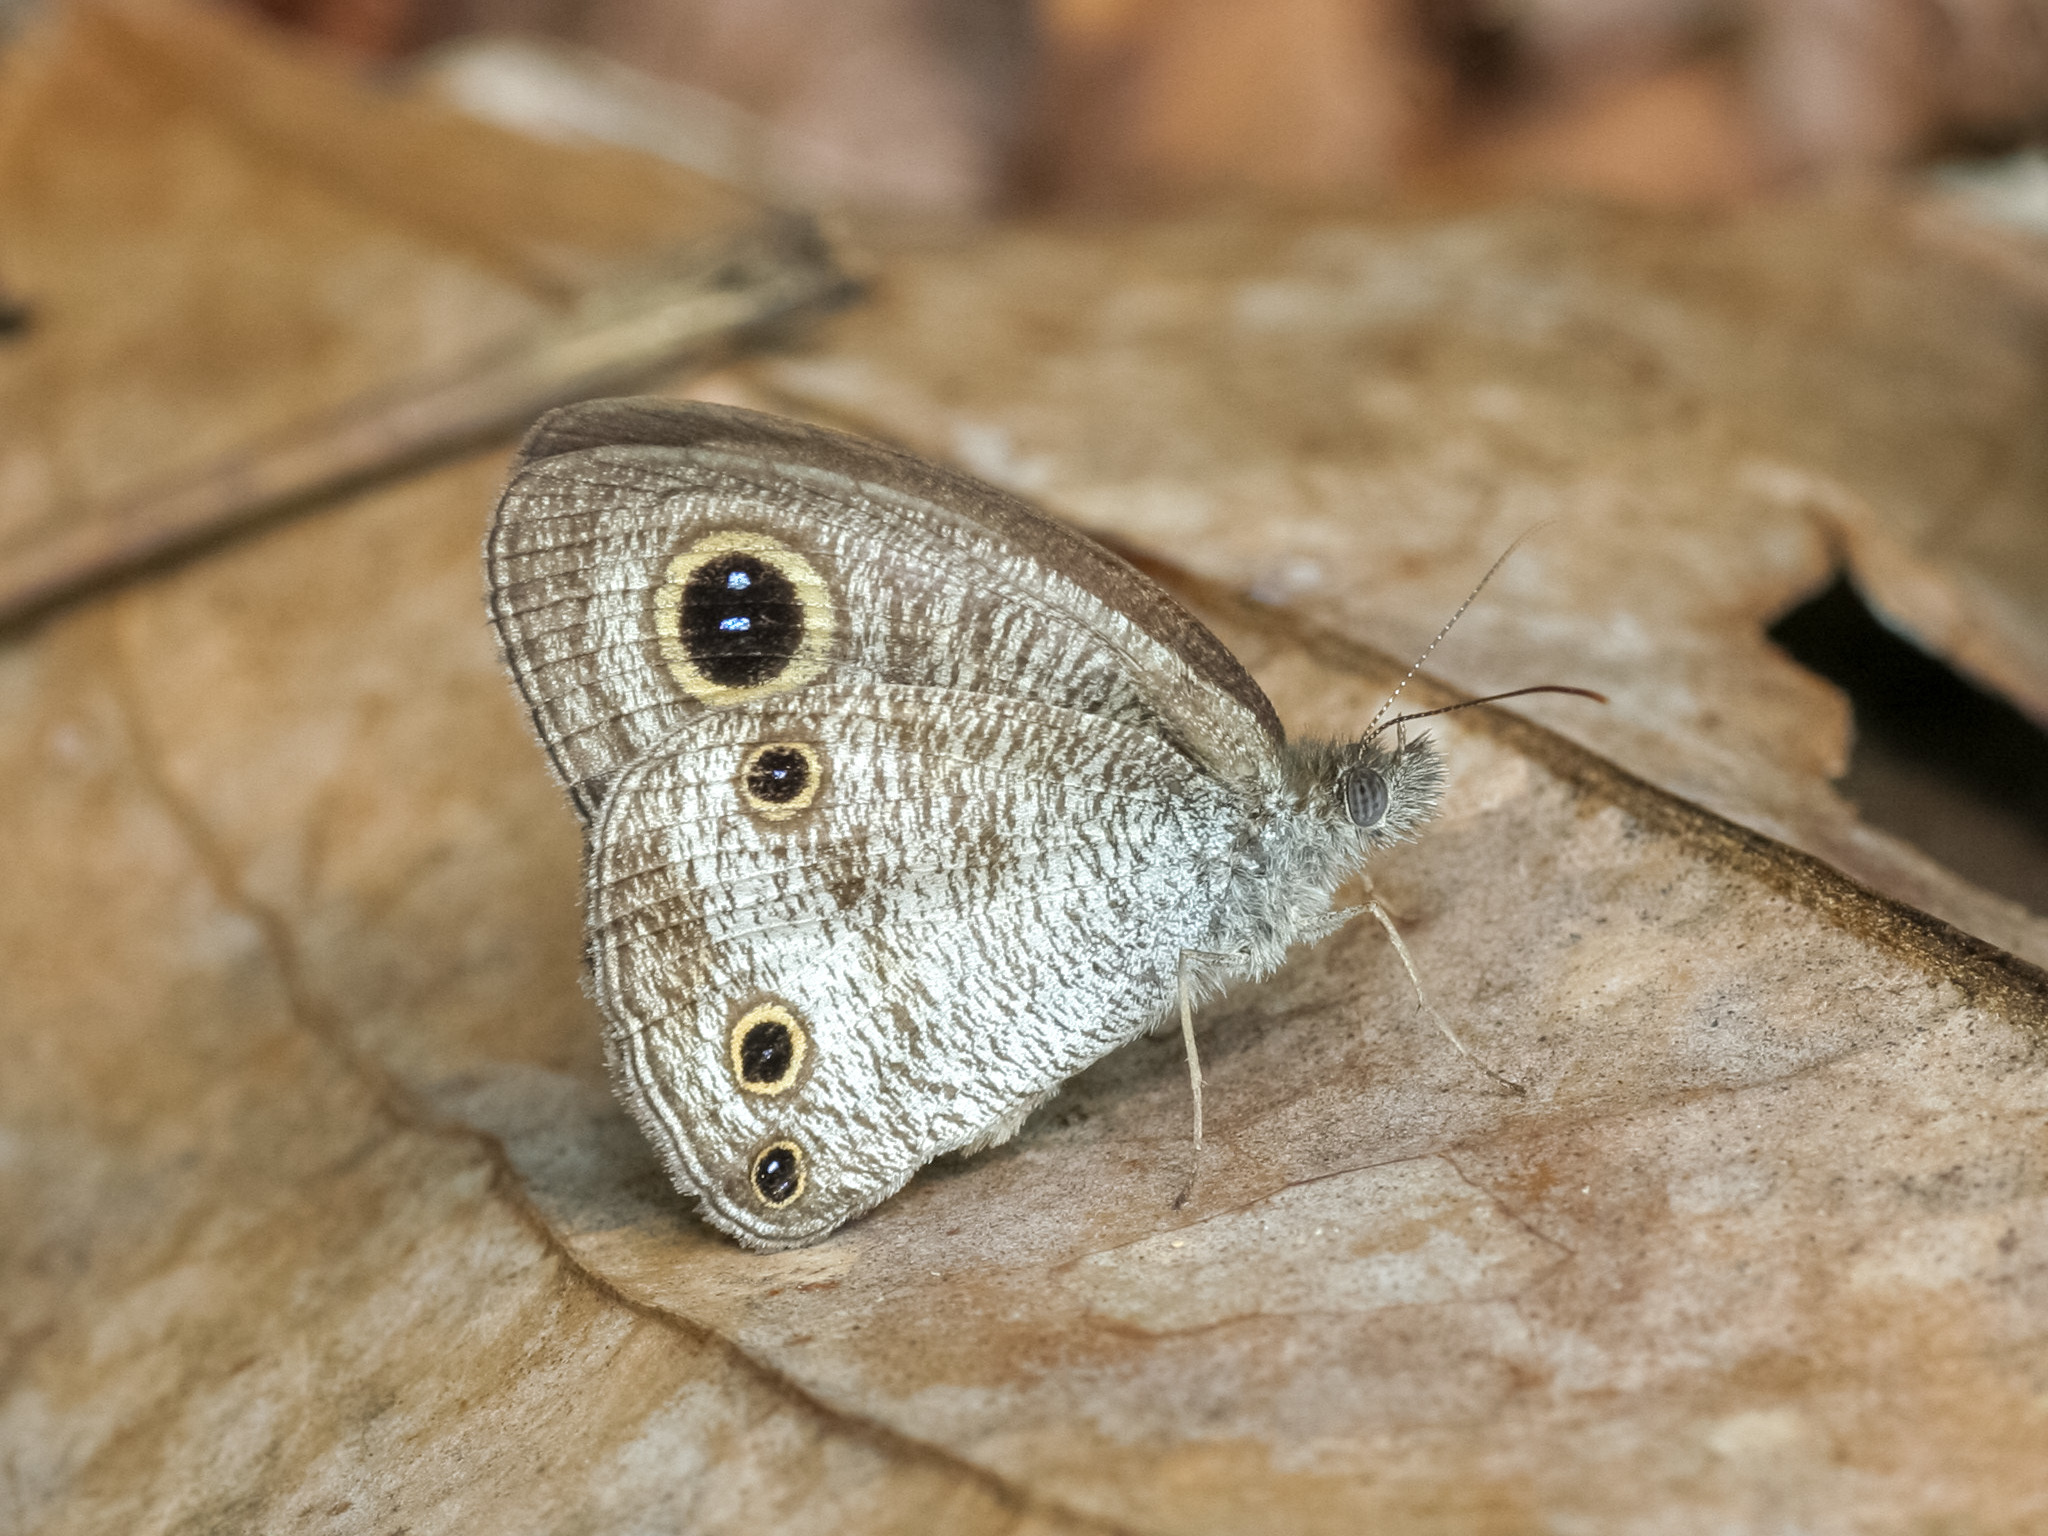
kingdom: Animalia
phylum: Arthropoda
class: Insecta
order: Lepidoptera
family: Nymphalidae
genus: Ypthima
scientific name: Ypthima pandocus
